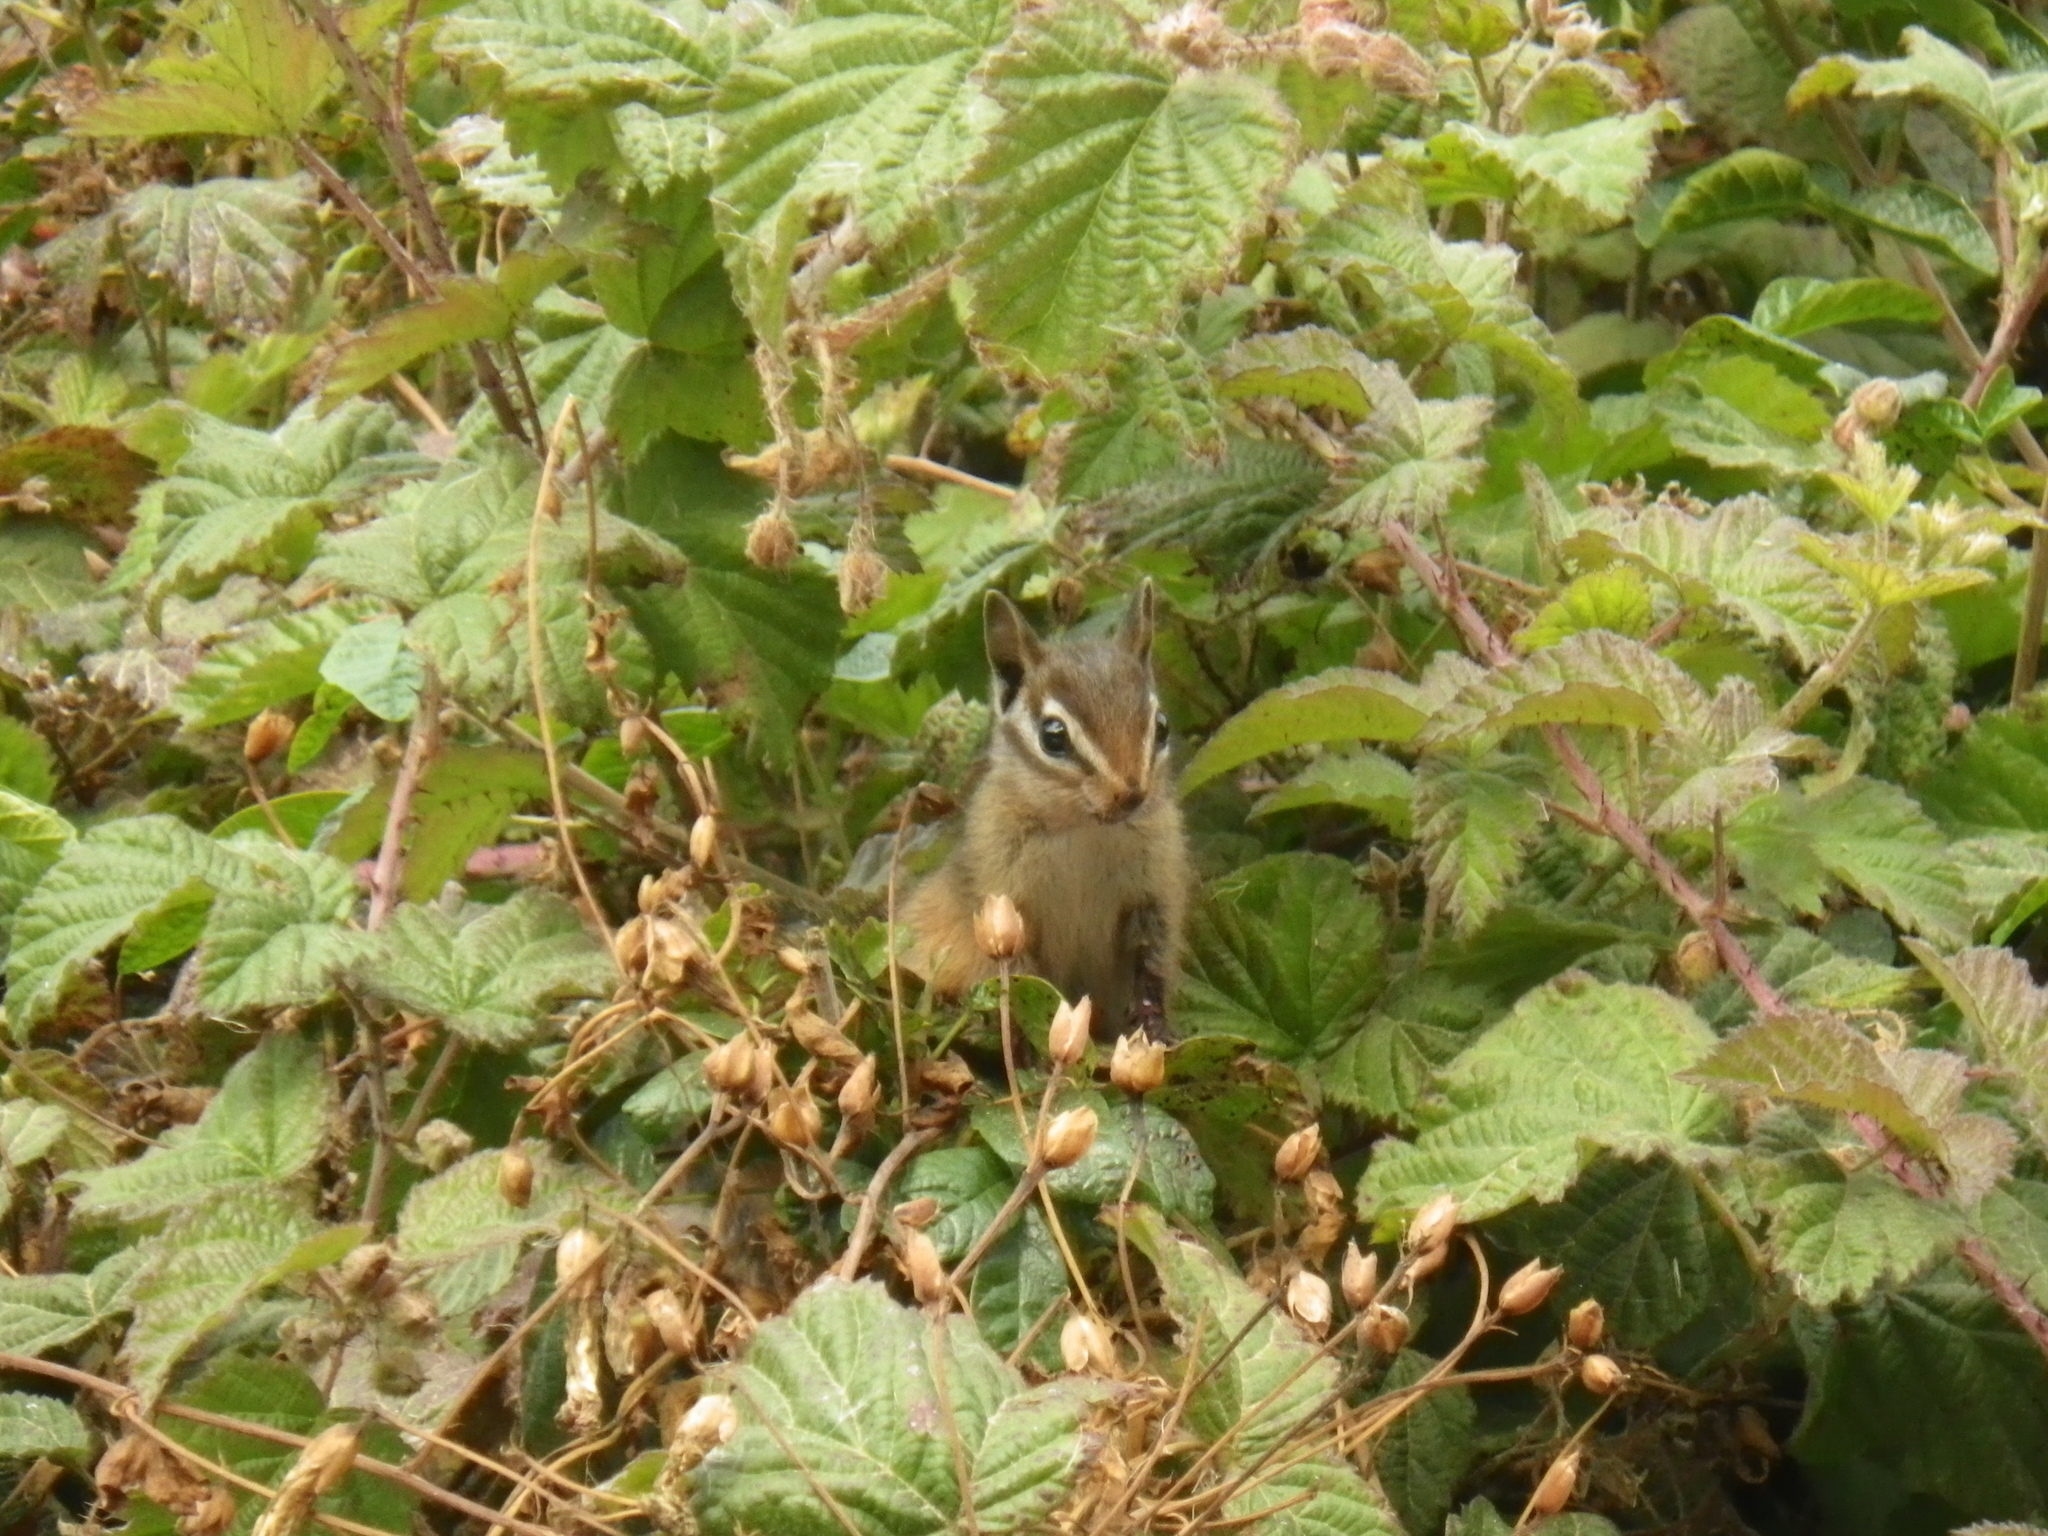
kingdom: Animalia
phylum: Chordata
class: Mammalia
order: Rodentia
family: Sciuridae
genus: Tamias
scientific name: Tamias merriami
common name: Merriam's chipmunk
